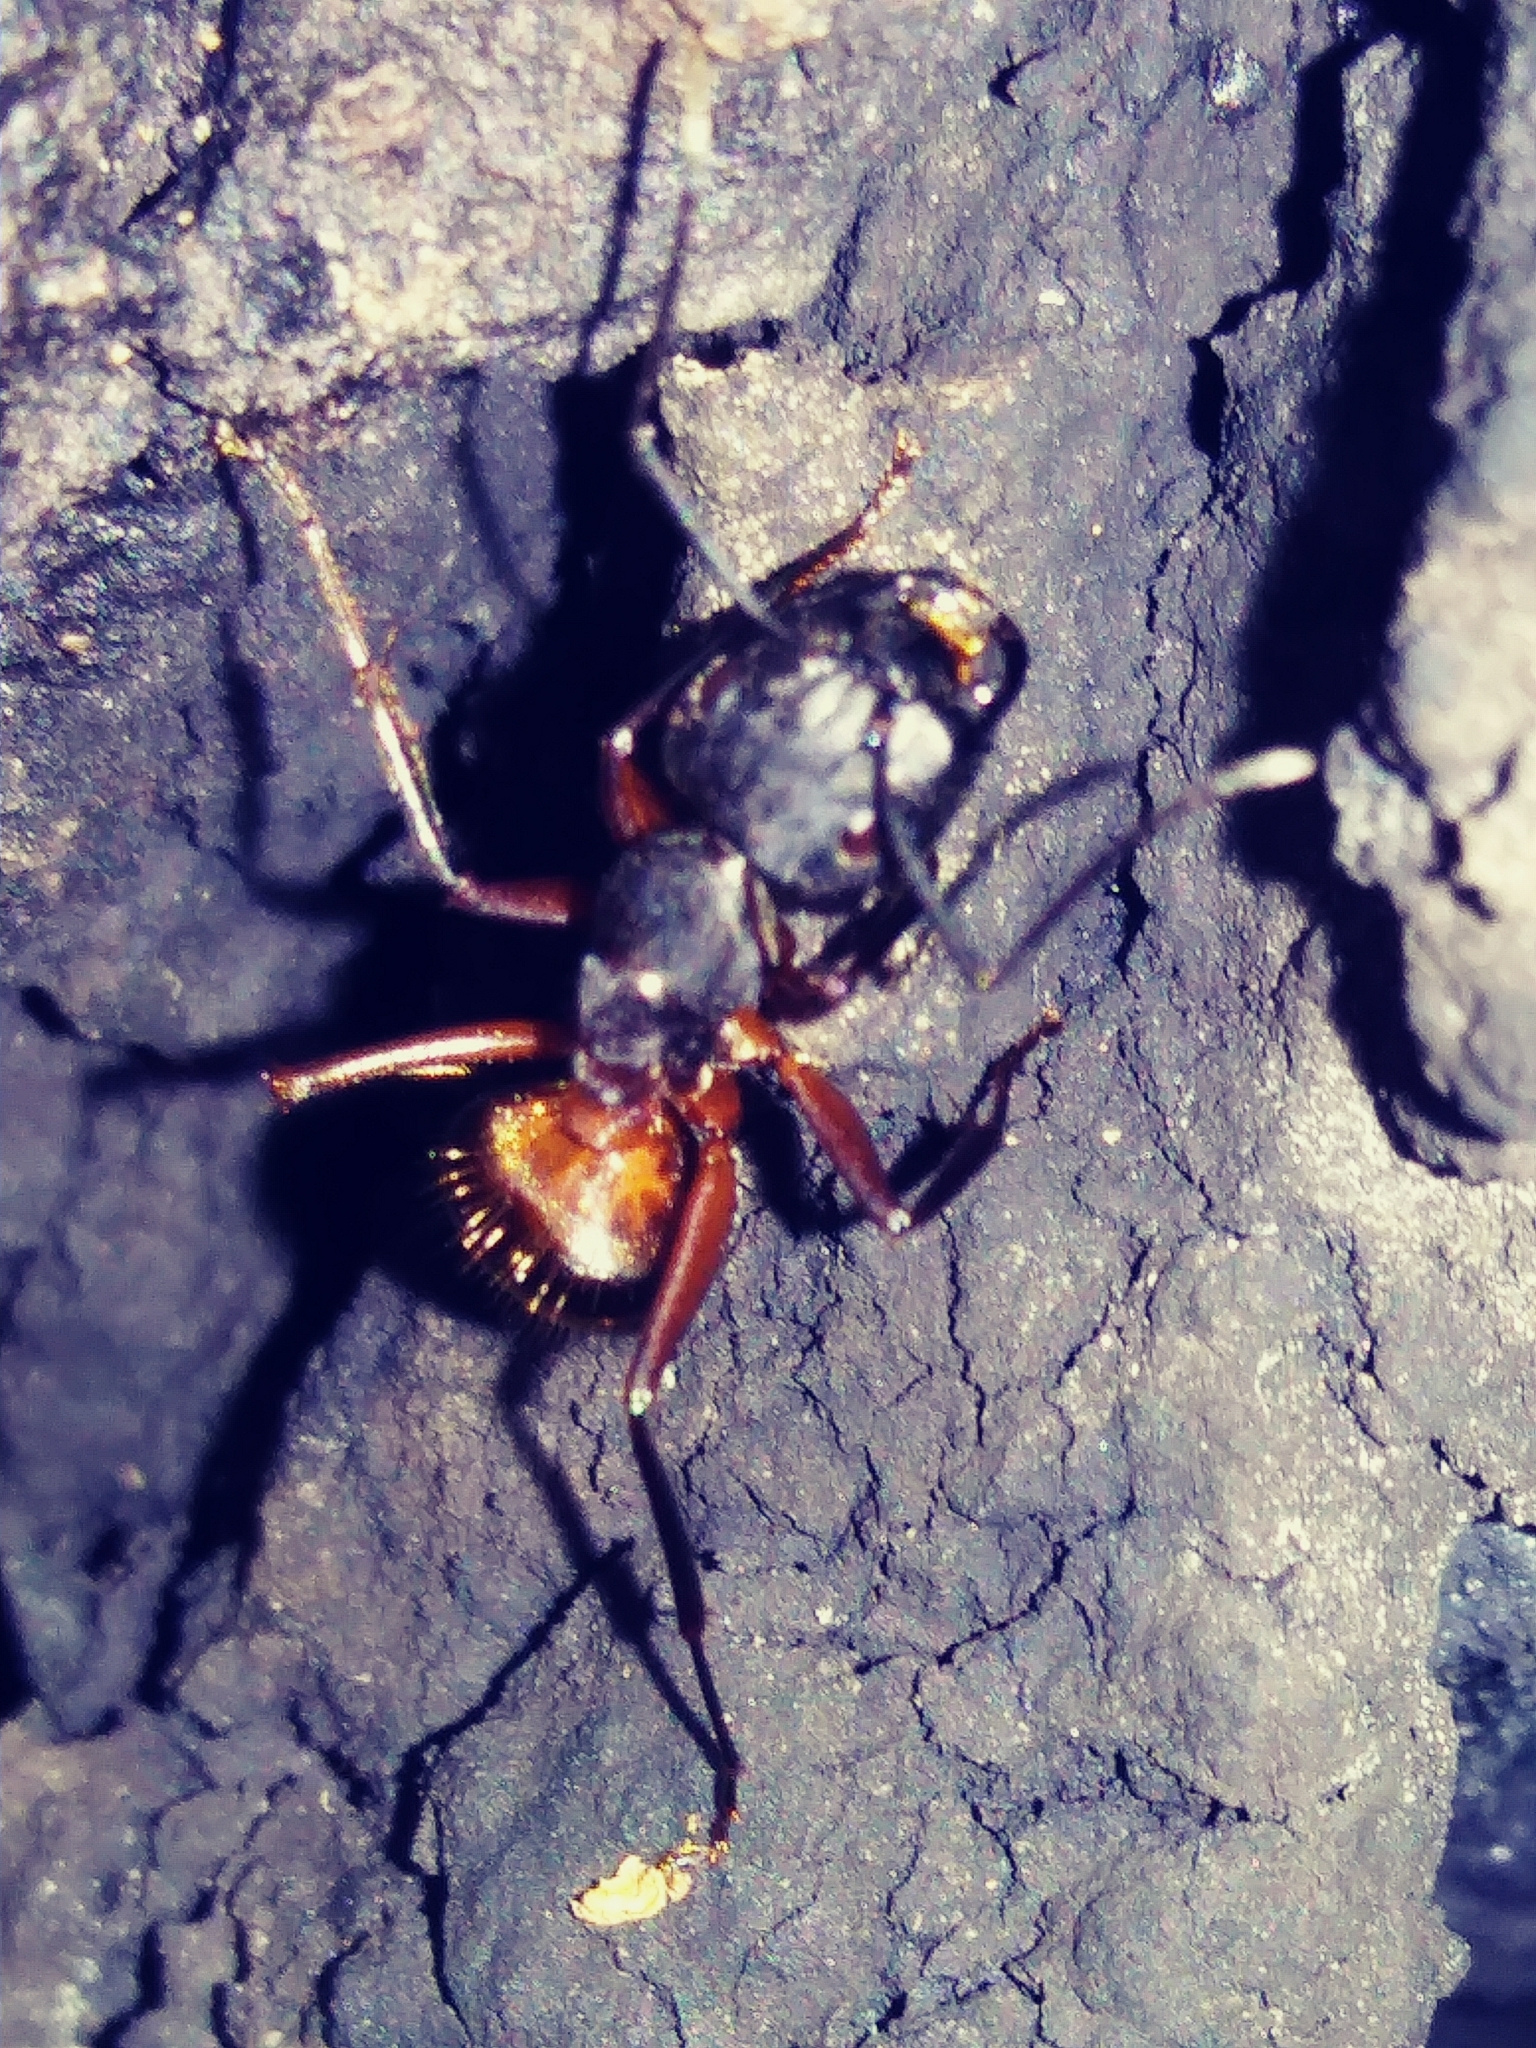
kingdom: Animalia
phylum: Arthropoda
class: Insecta
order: Hymenoptera
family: Formicidae
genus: Camponotus
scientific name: Camponotus chromaiodes
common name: Red carpenter ant
